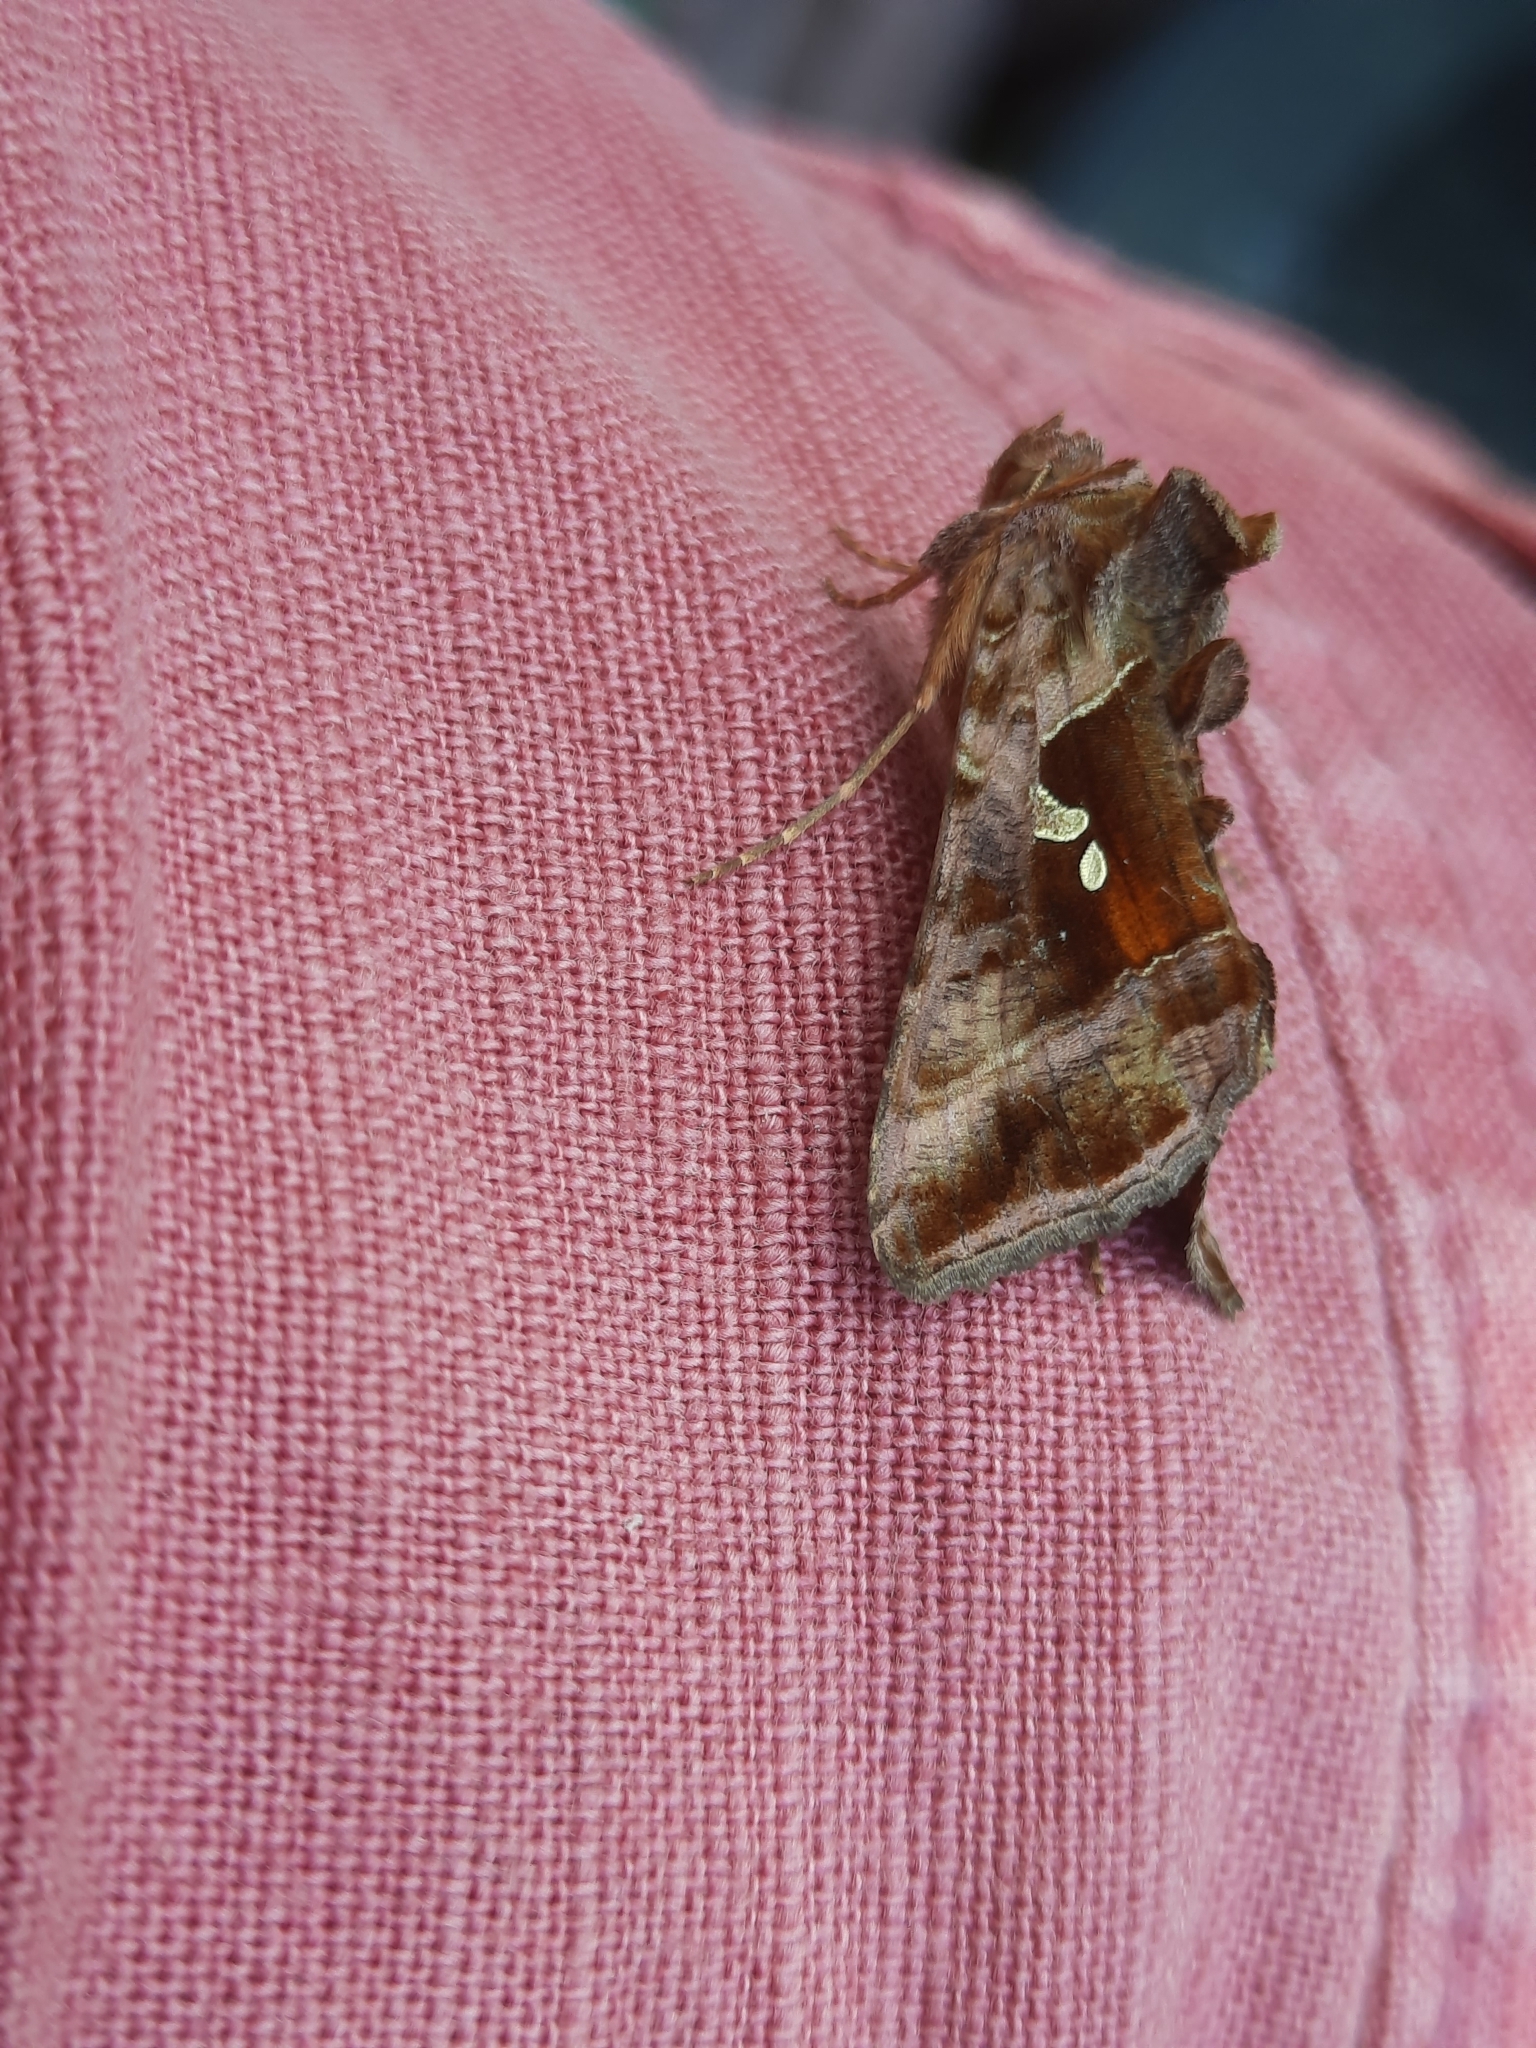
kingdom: Animalia
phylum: Arthropoda
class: Insecta
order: Lepidoptera
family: Noctuidae
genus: Autographa
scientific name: Autographa jota
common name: Plain golden y
